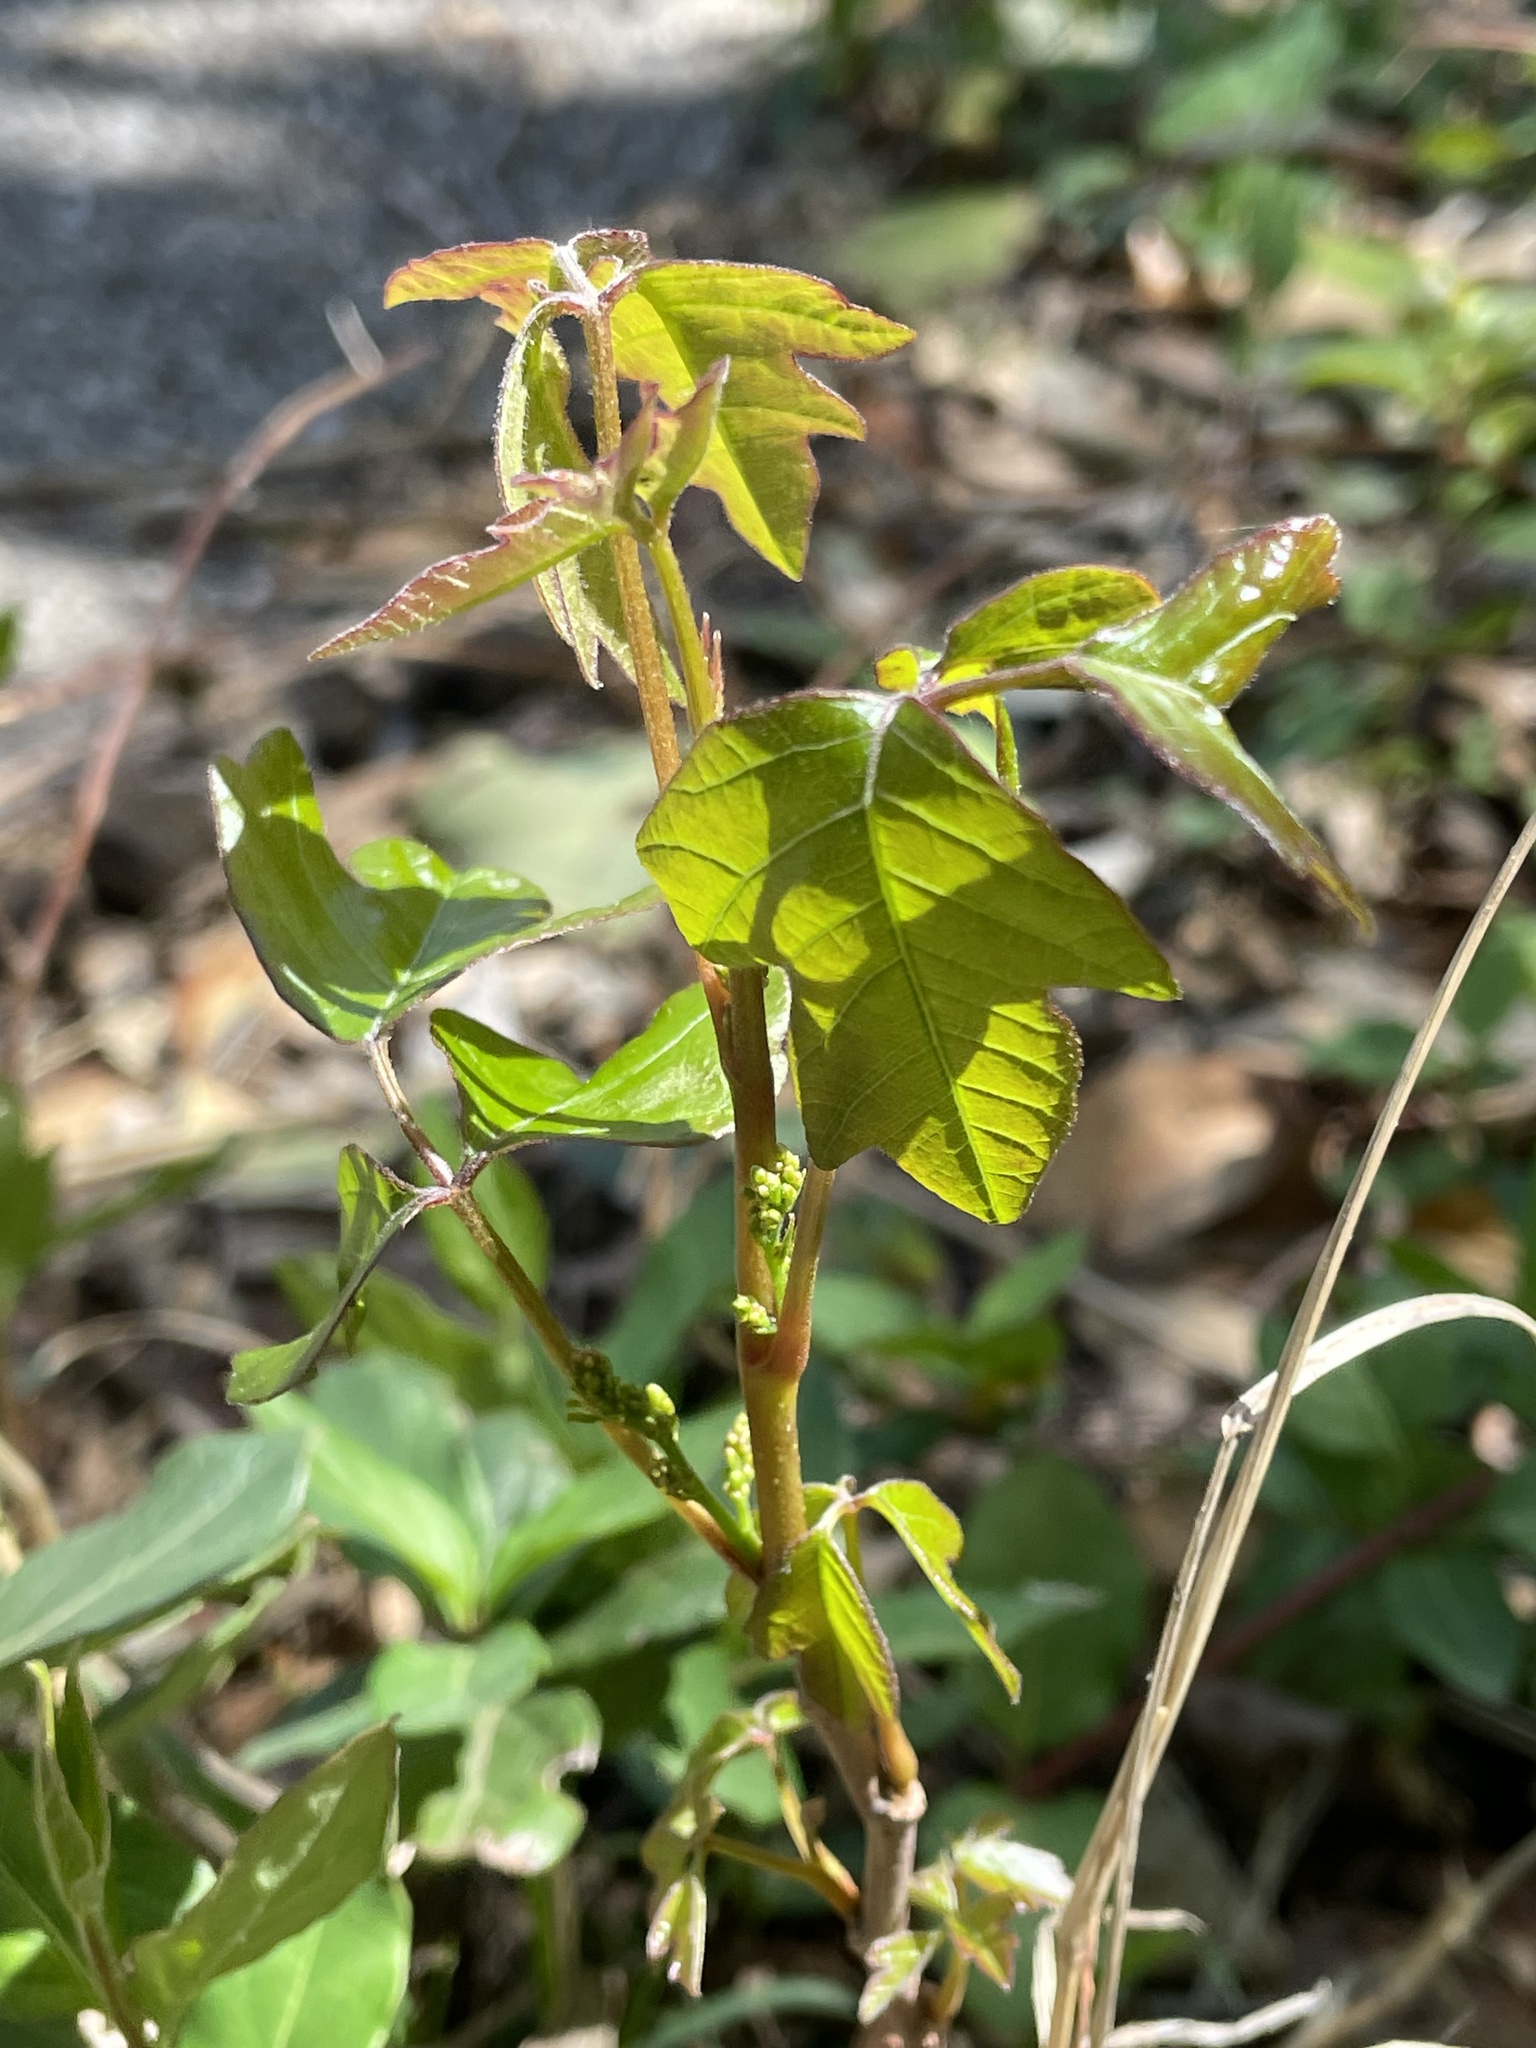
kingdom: Plantae
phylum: Tracheophyta
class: Magnoliopsida
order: Sapindales
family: Anacardiaceae
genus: Toxicodendron
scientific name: Toxicodendron radicans
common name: Poison ivy
